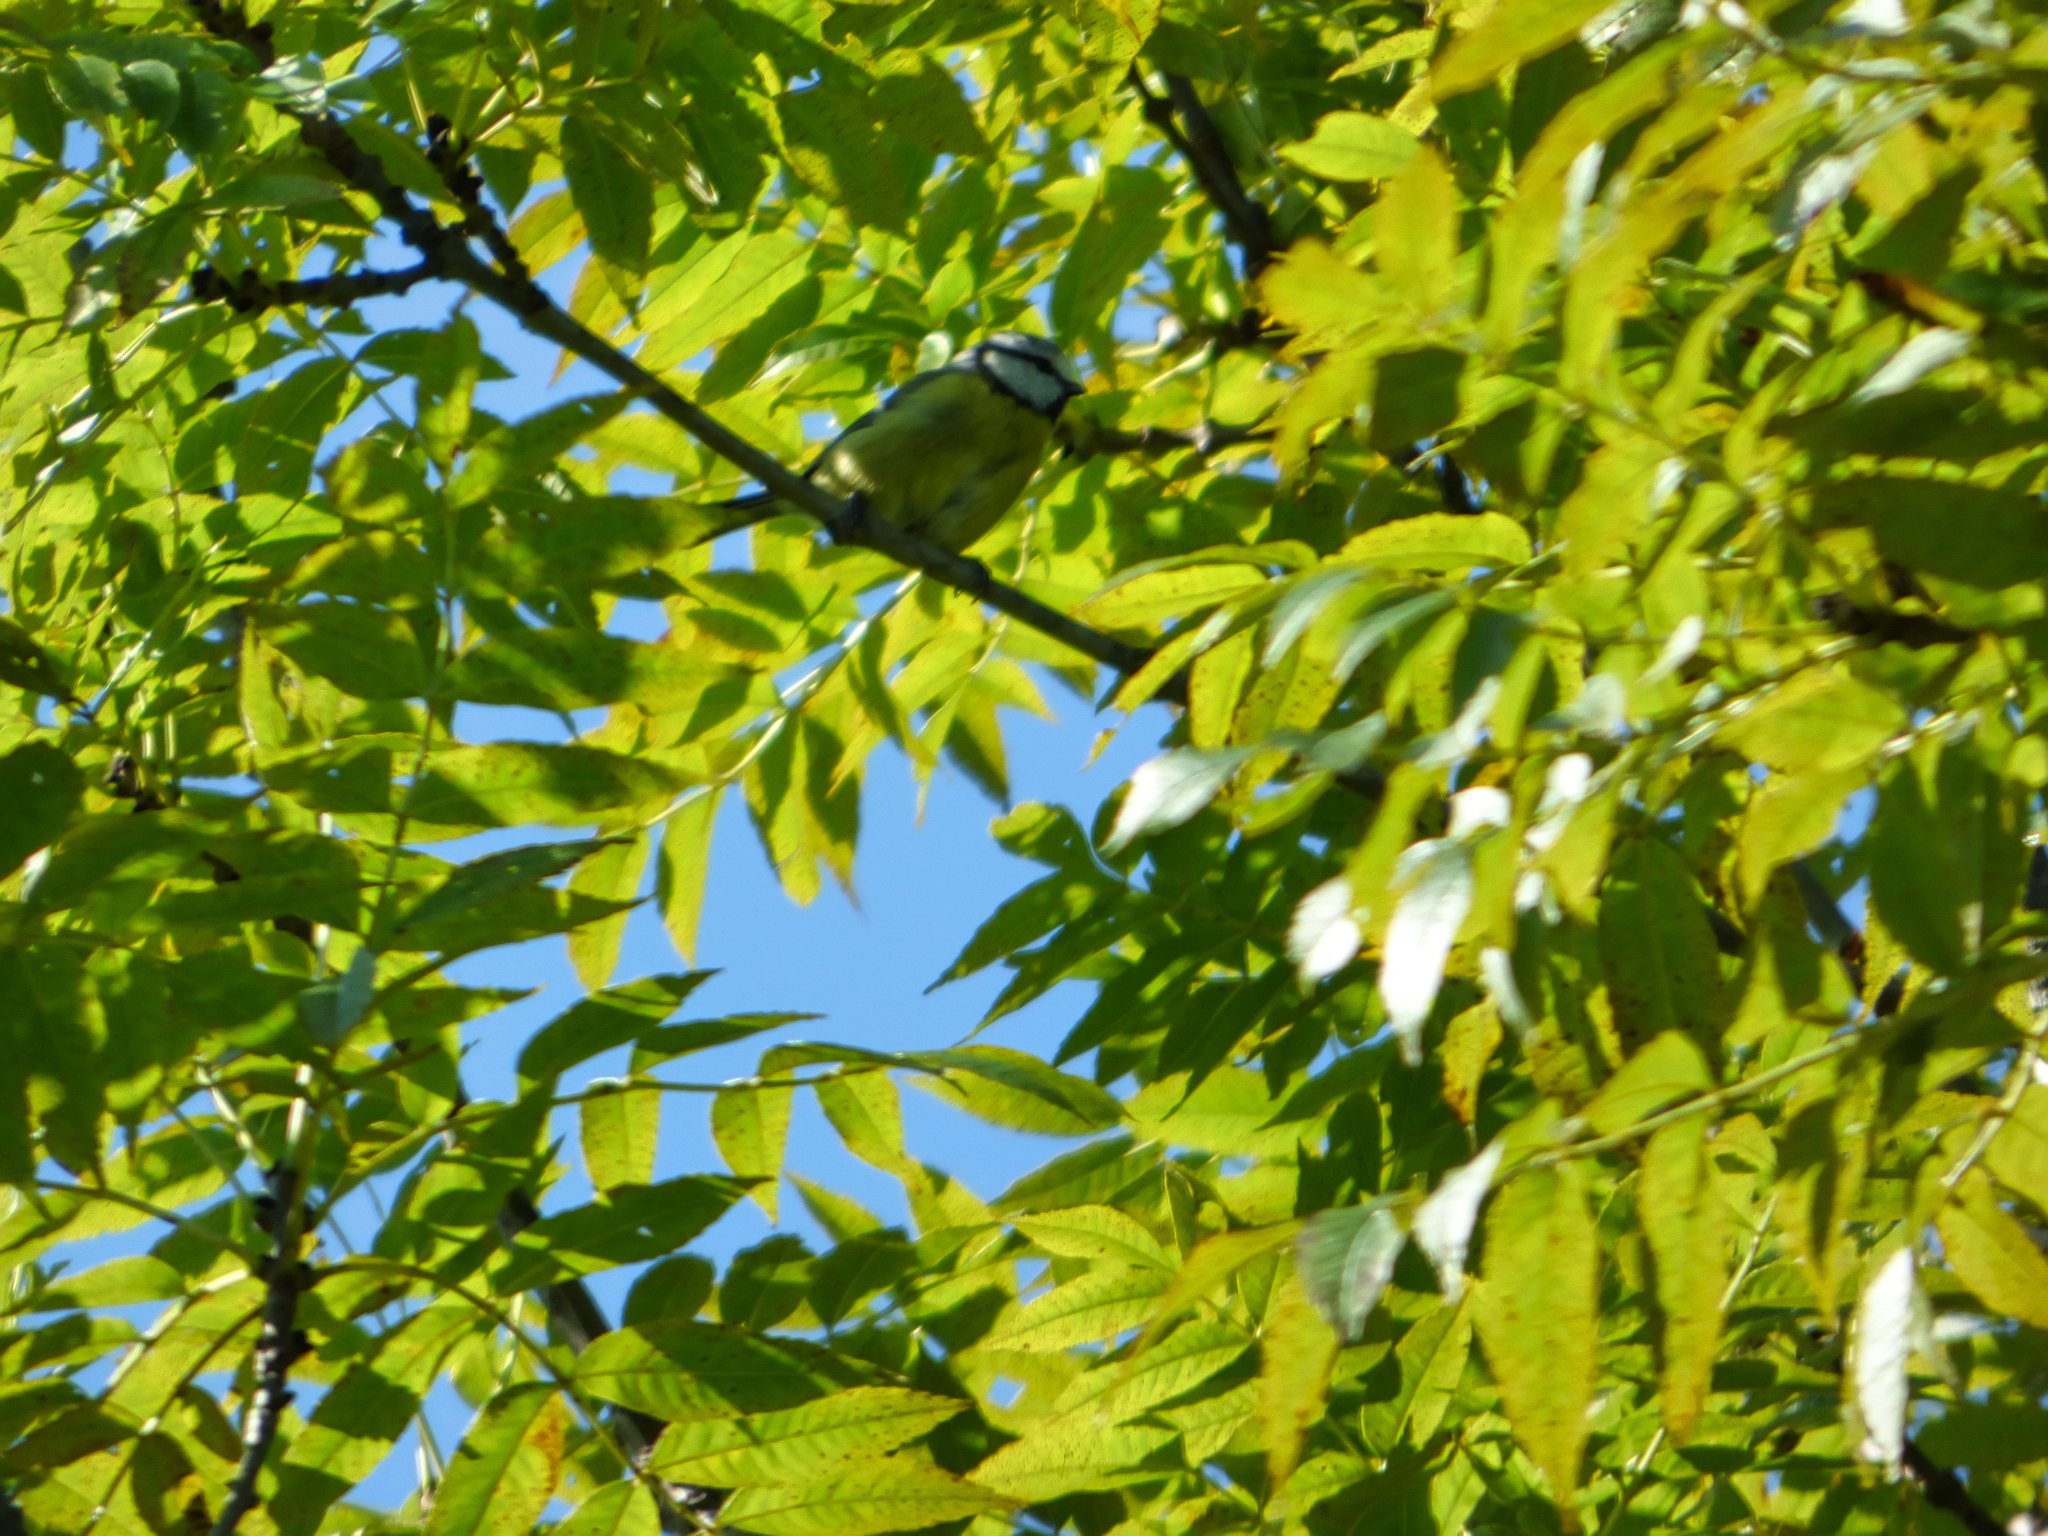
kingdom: Animalia
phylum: Chordata
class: Aves
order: Passeriformes
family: Paridae
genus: Cyanistes
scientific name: Cyanistes caeruleus
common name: Eurasian blue tit
